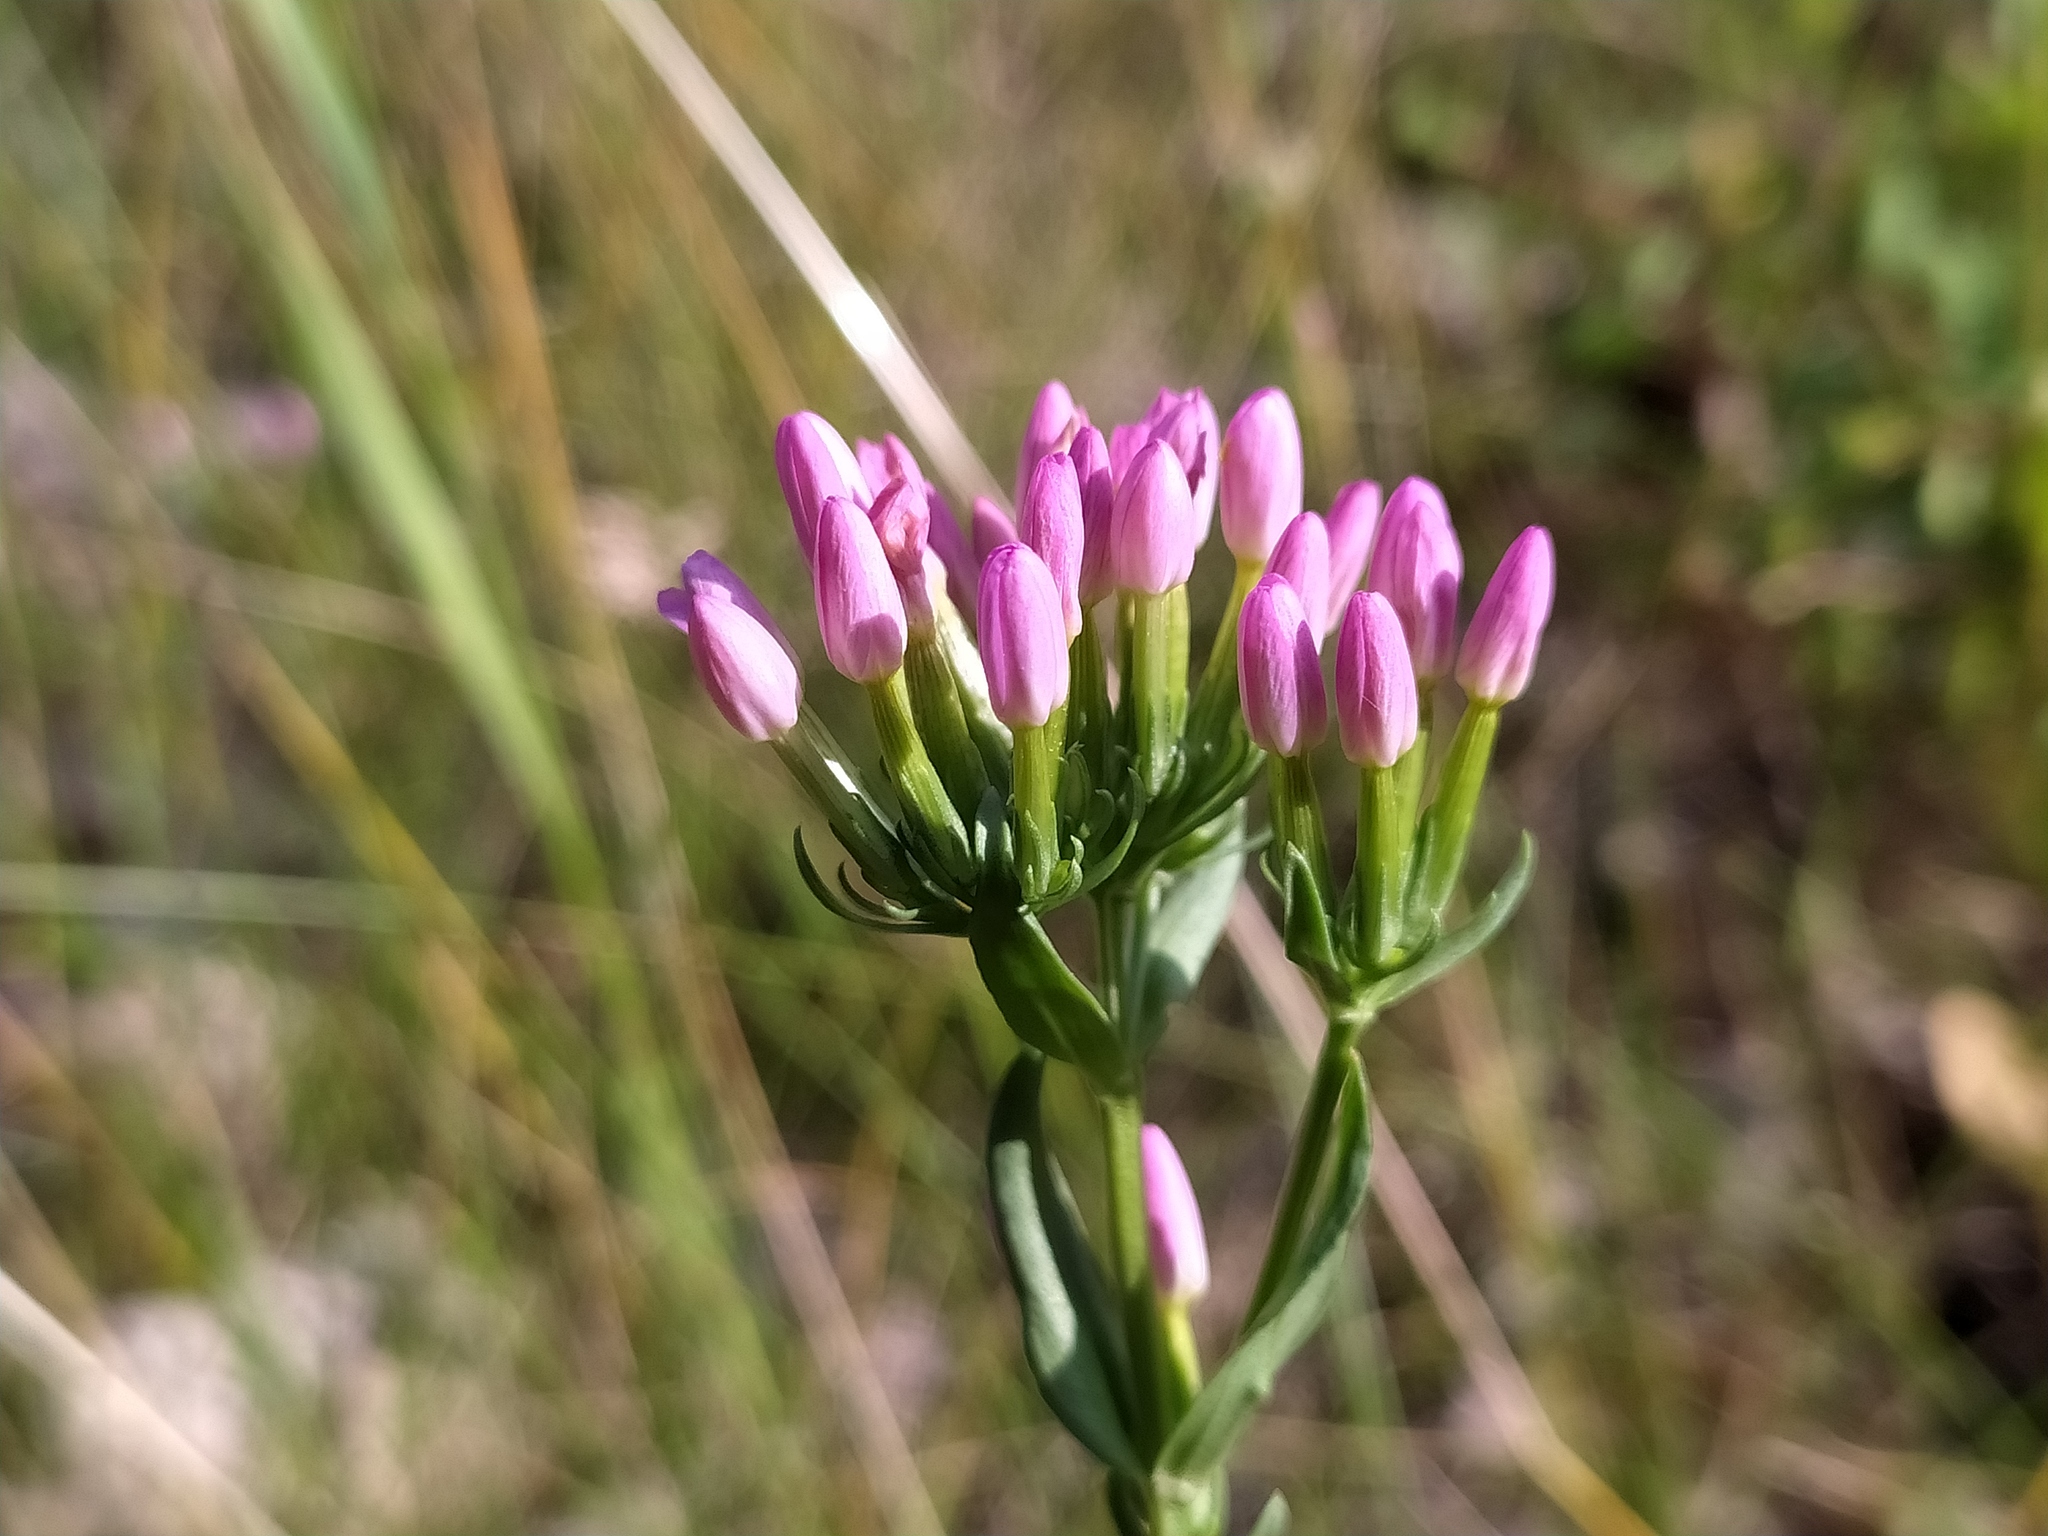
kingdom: Plantae
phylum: Tracheophyta
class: Magnoliopsida
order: Gentianales
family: Gentianaceae
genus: Centaurium
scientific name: Centaurium erythraea
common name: Common centaury
